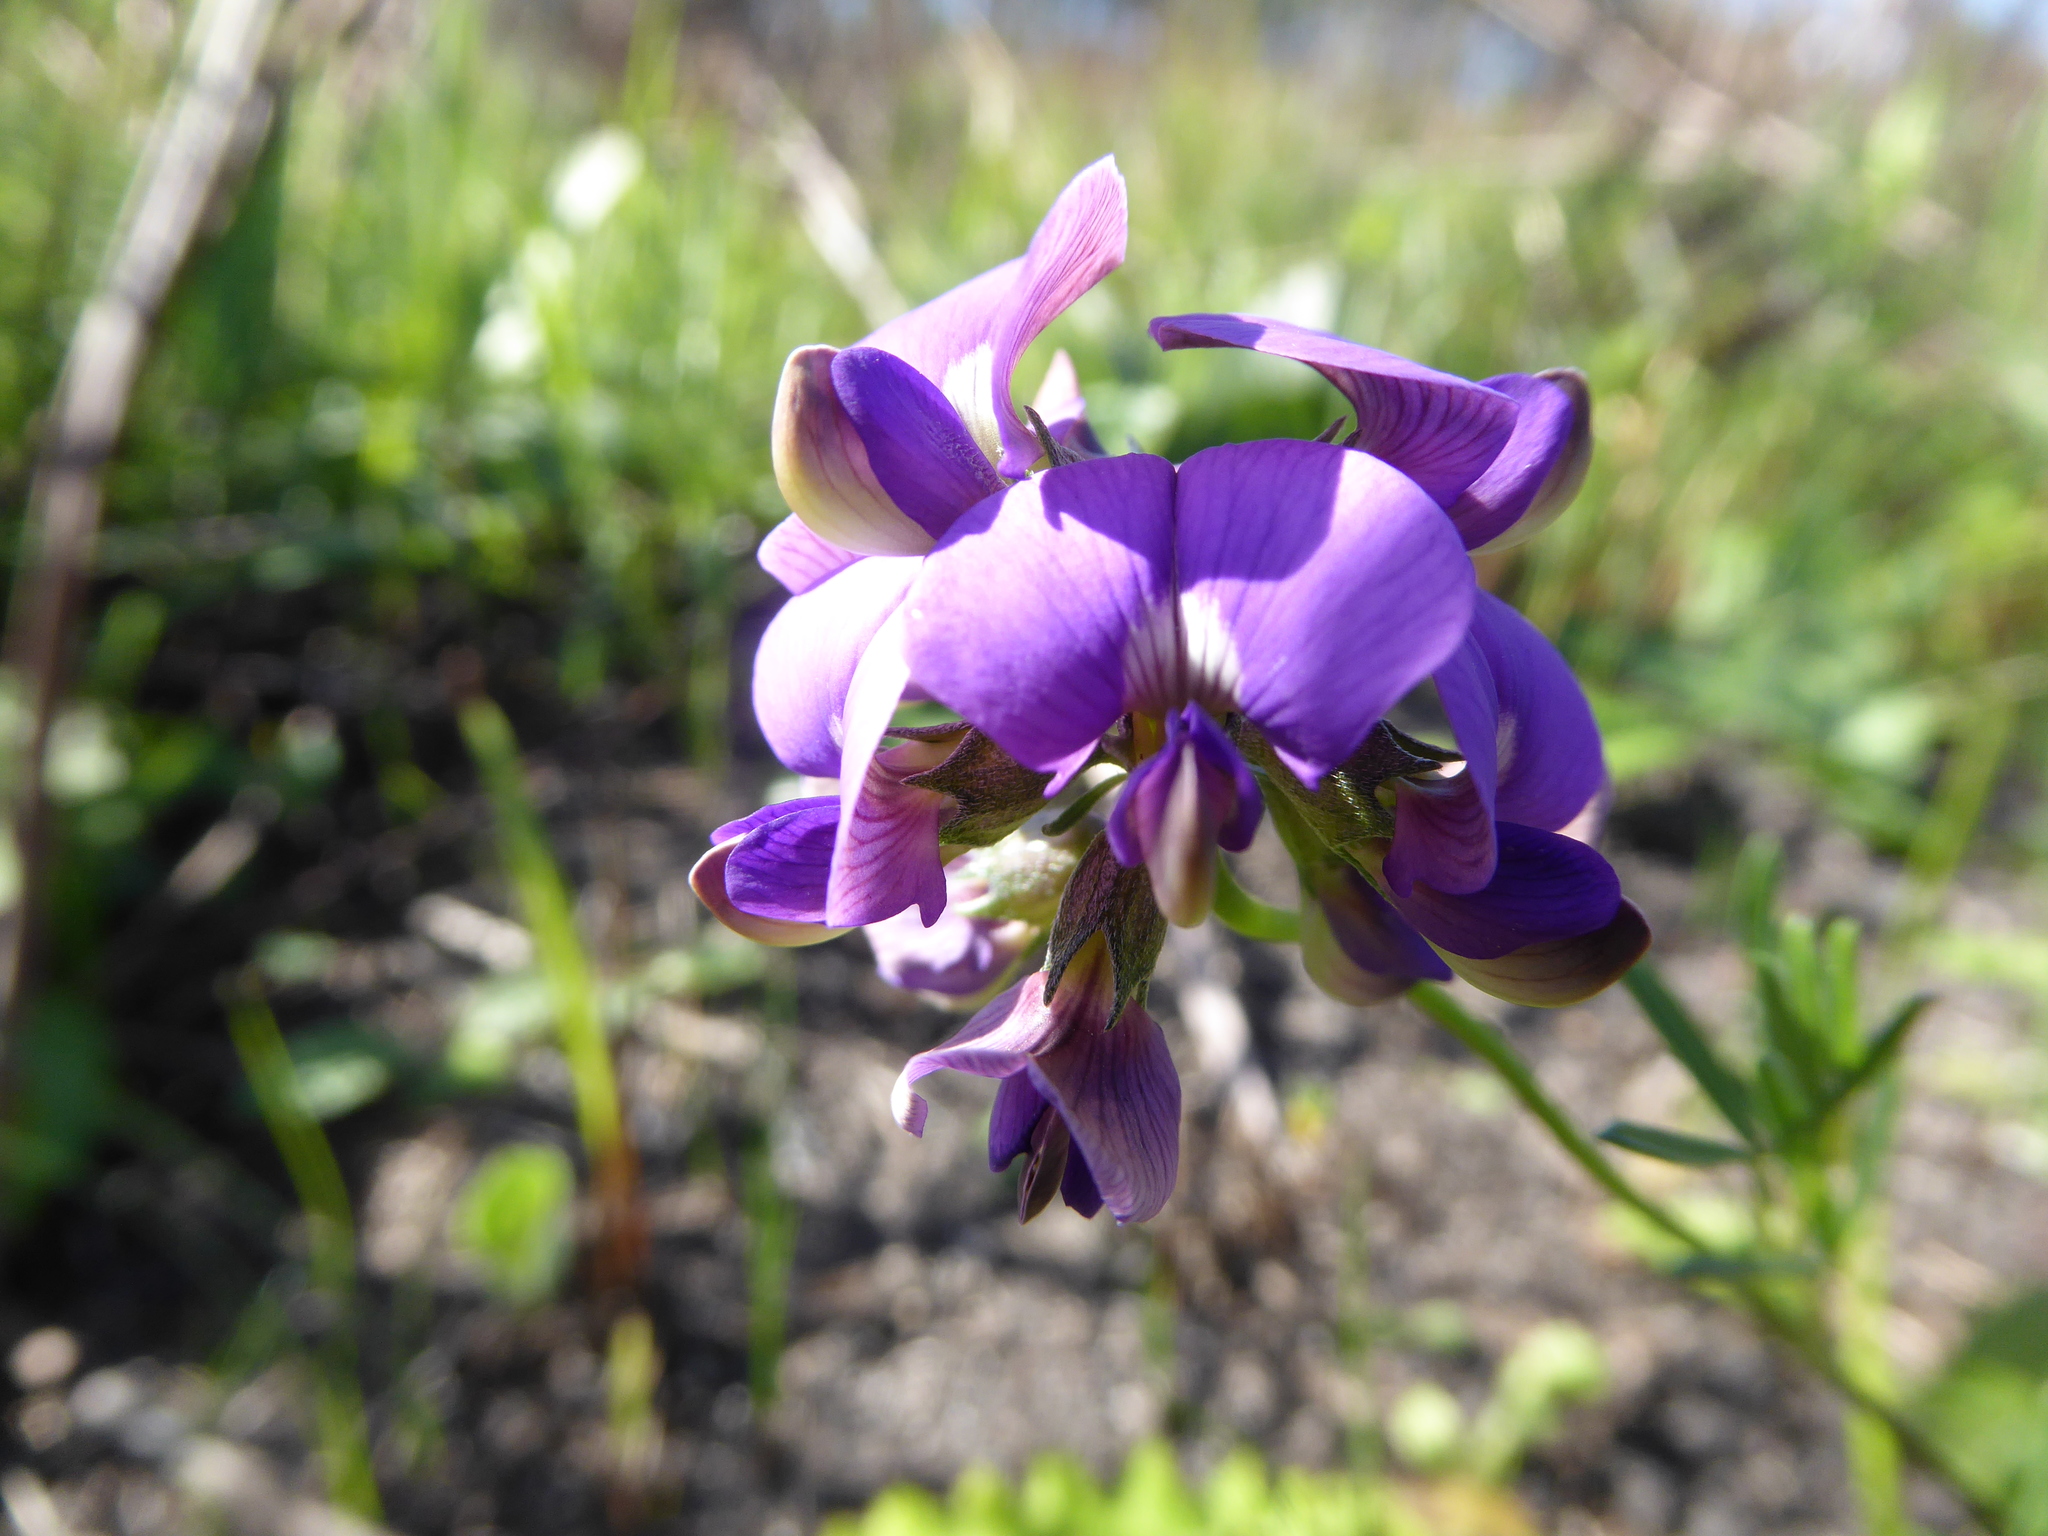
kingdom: Plantae
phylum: Tracheophyta
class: Magnoliopsida
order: Fabales
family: Fabaceae
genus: Lotononis
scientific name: Lotononis bachmanniana
